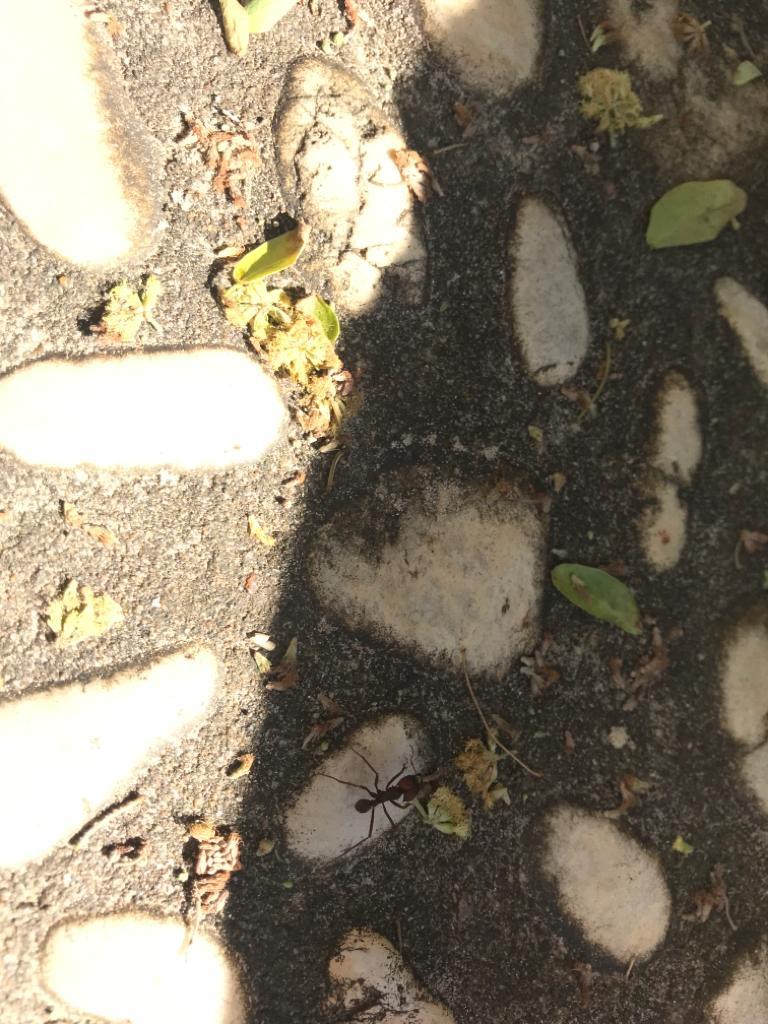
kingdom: Animalia
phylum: Arthropoda
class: Insecta
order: Hymenoptera
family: Formicidae
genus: Atta
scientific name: Atta sexdens
